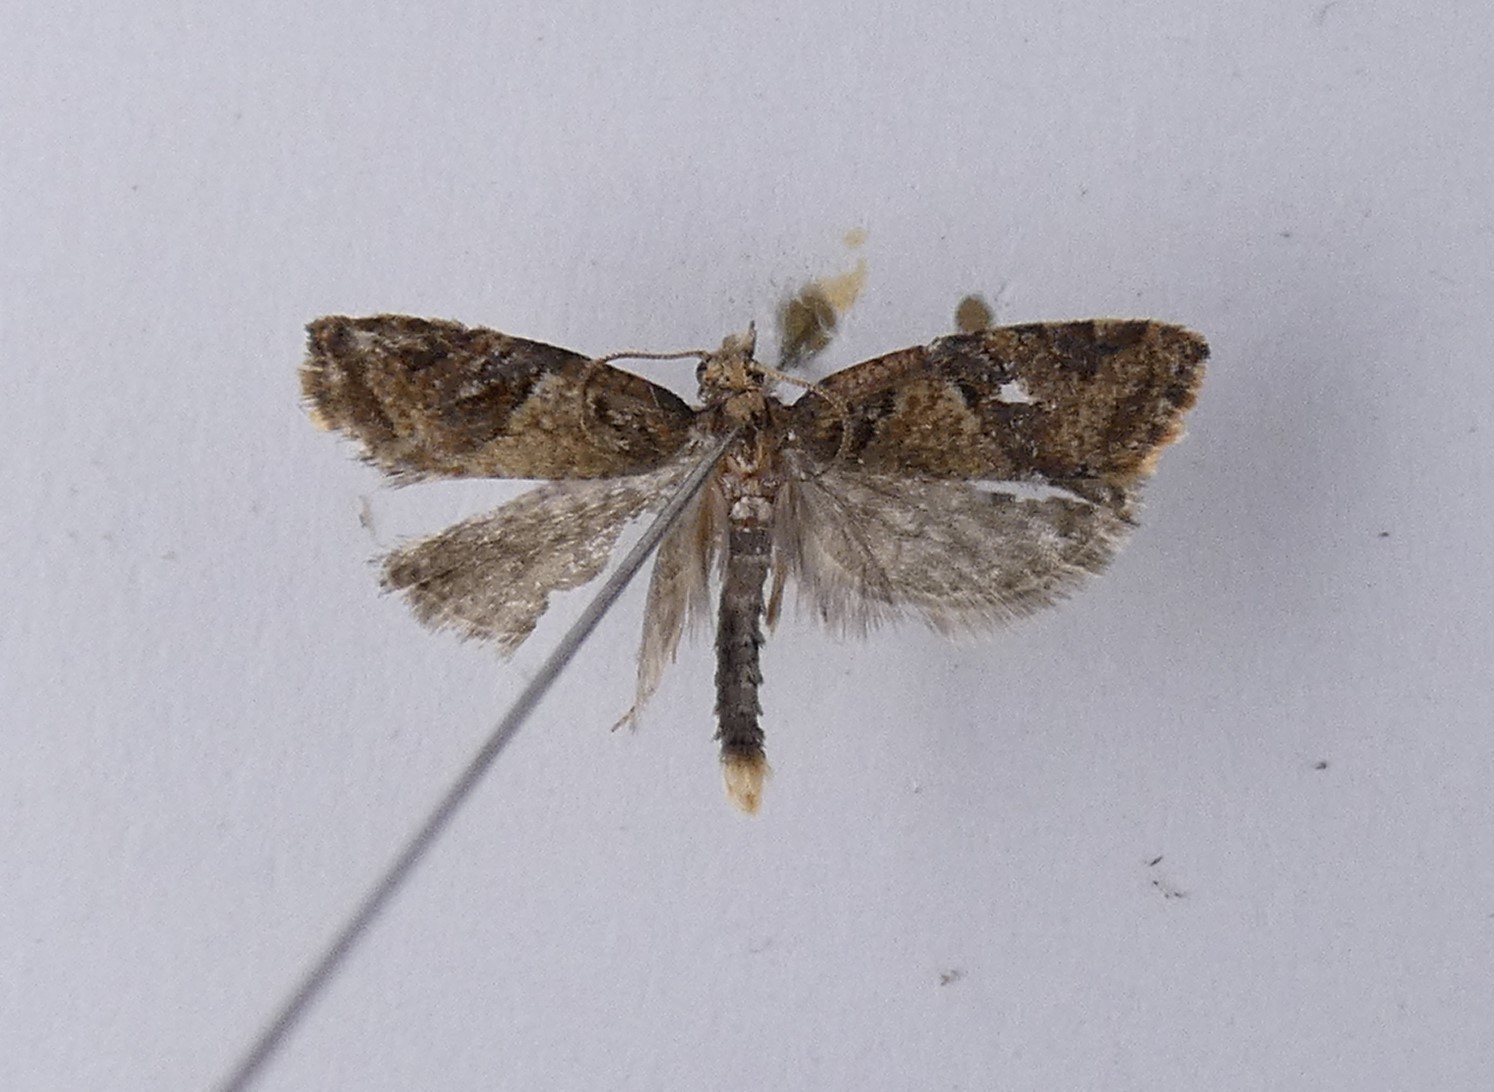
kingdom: Animalia
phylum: Arthropoda
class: Insecta
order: Lepidoptera
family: Tortricidae
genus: Capua
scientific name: Capua semiferana
